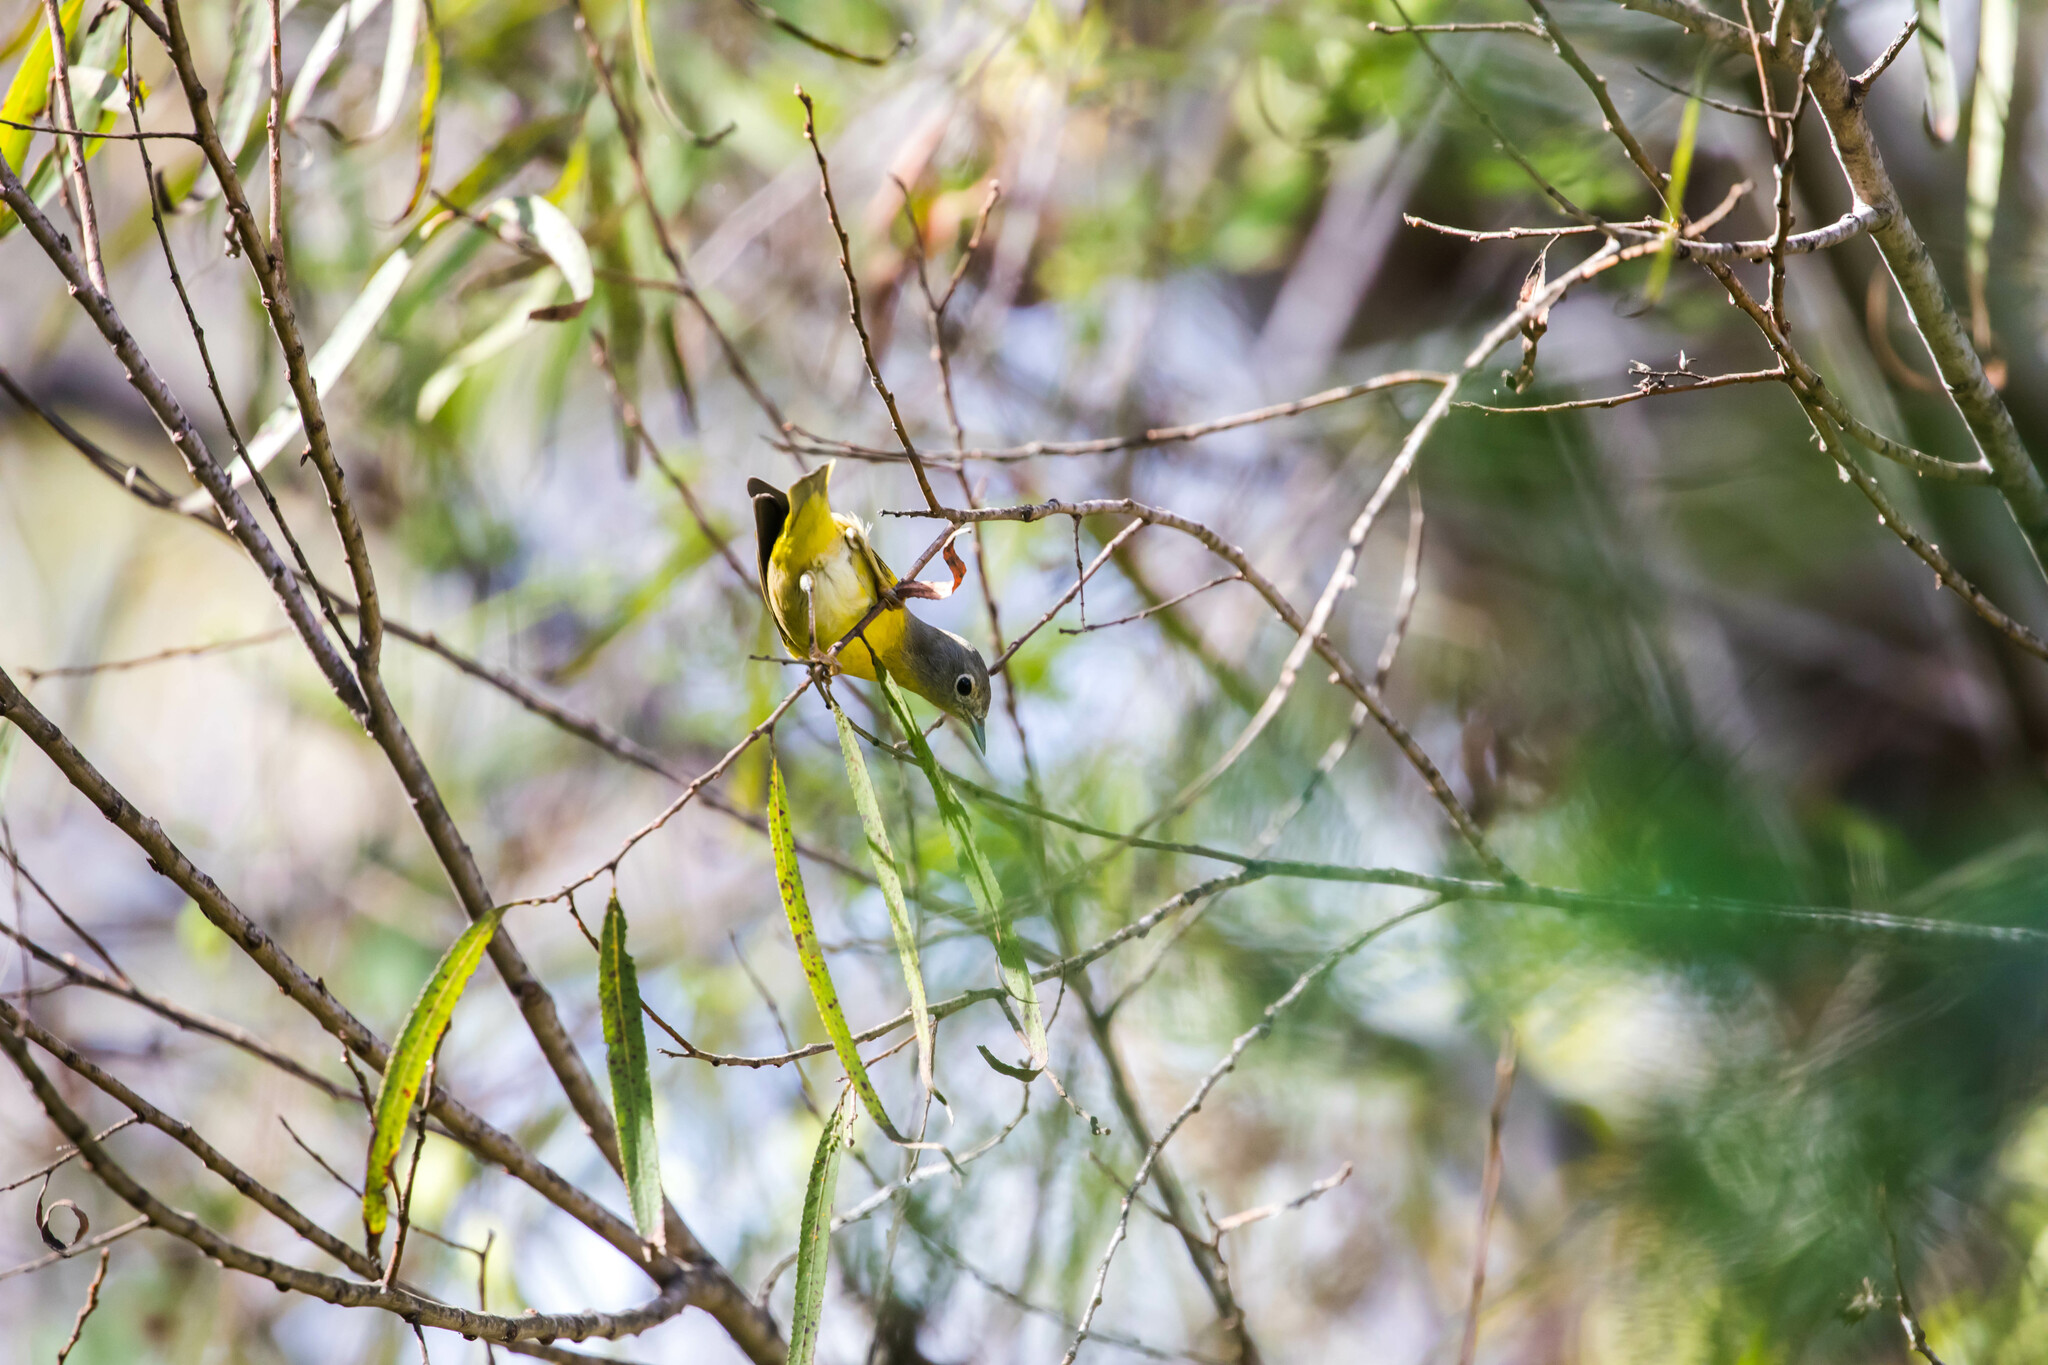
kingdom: Animalia
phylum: Chordata
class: Aves
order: Passeriformes
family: Parulidae
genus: Leiothlypis
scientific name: Leiothlypis ruficapilla
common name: Nashville warbler
